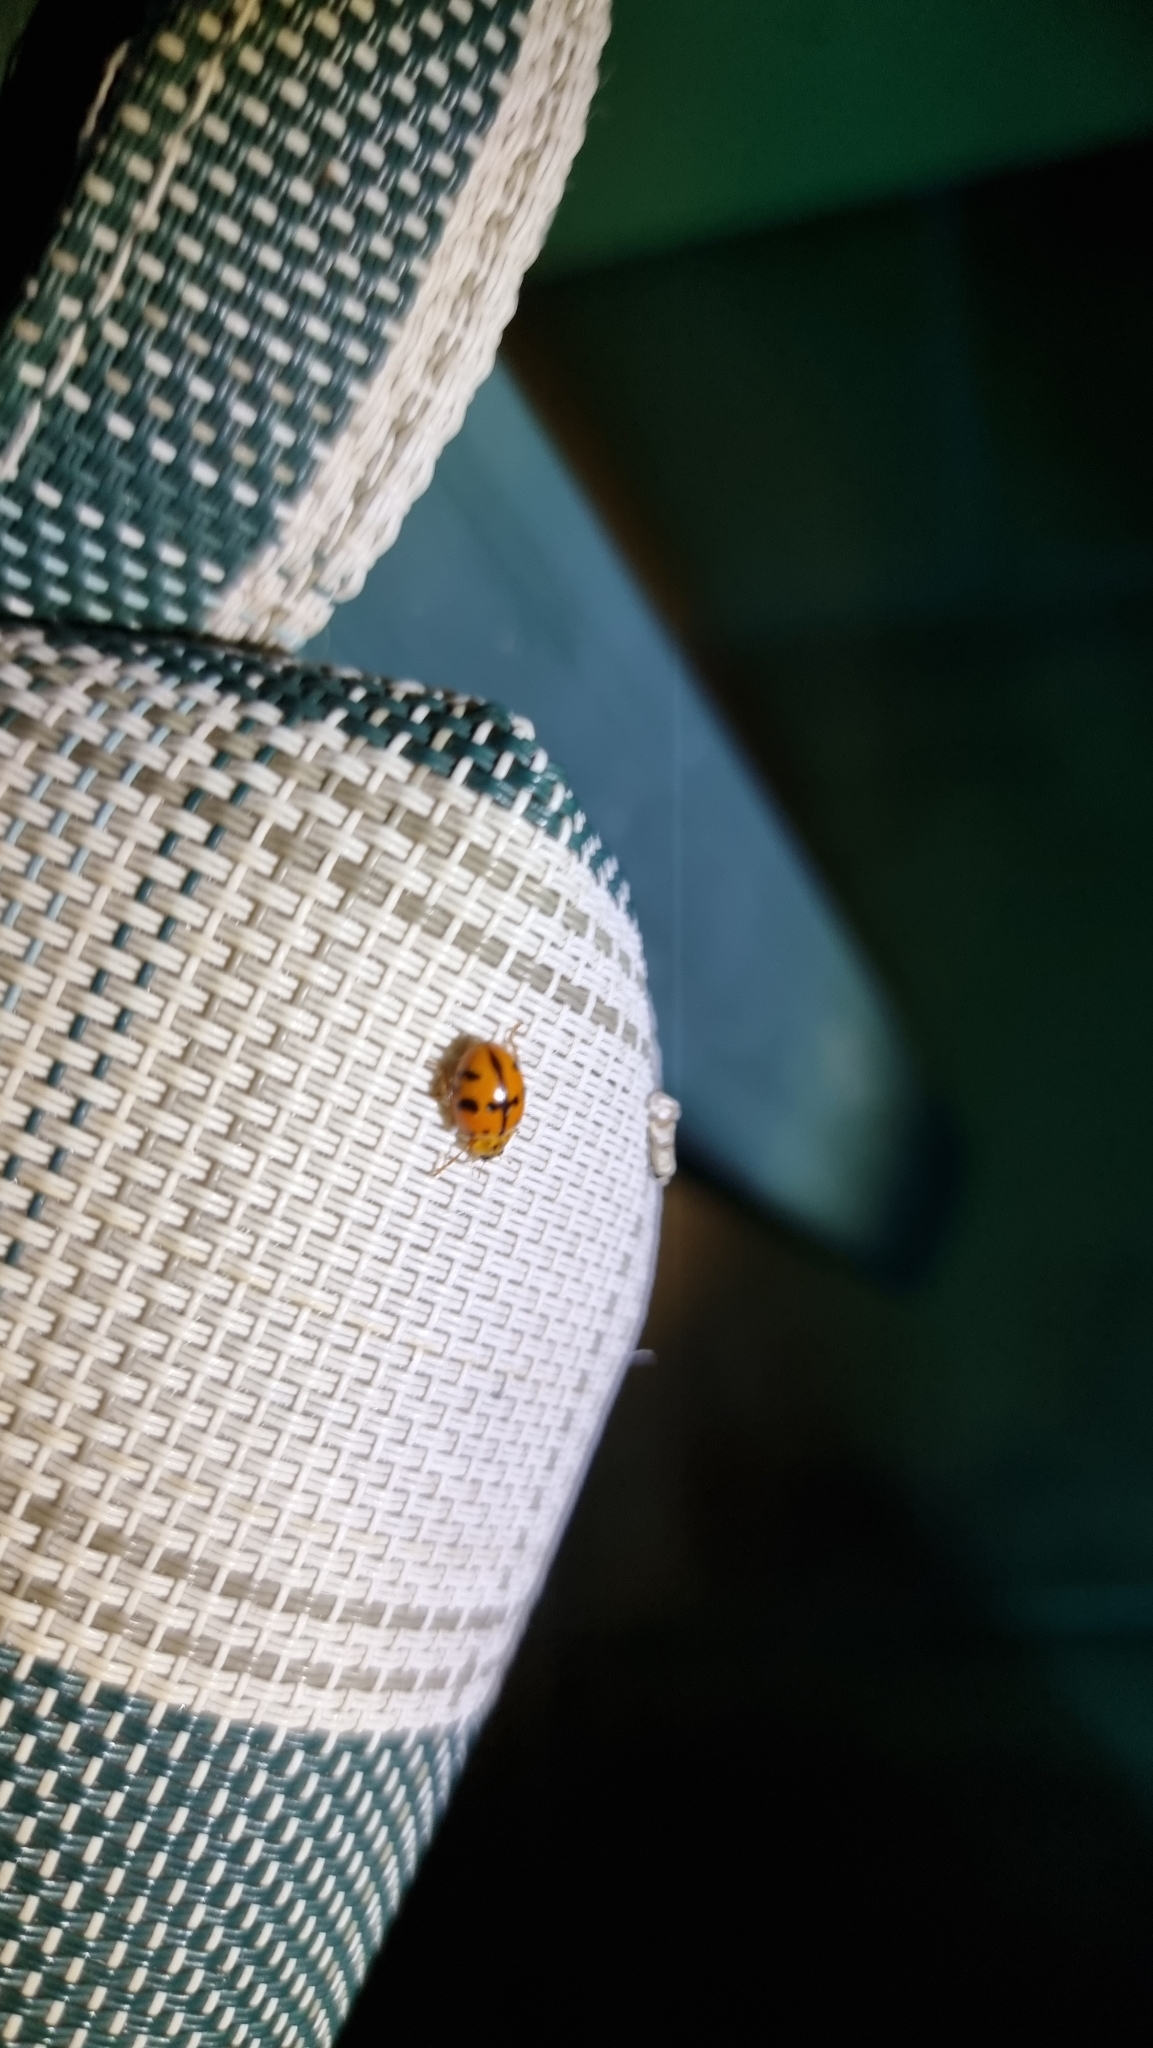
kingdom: Animalia
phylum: Arthropoda
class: Insecta
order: Coleoptera
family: Coccinellidae
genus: Harmonia
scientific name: Harmonia octomaculata
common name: Lady beetle
